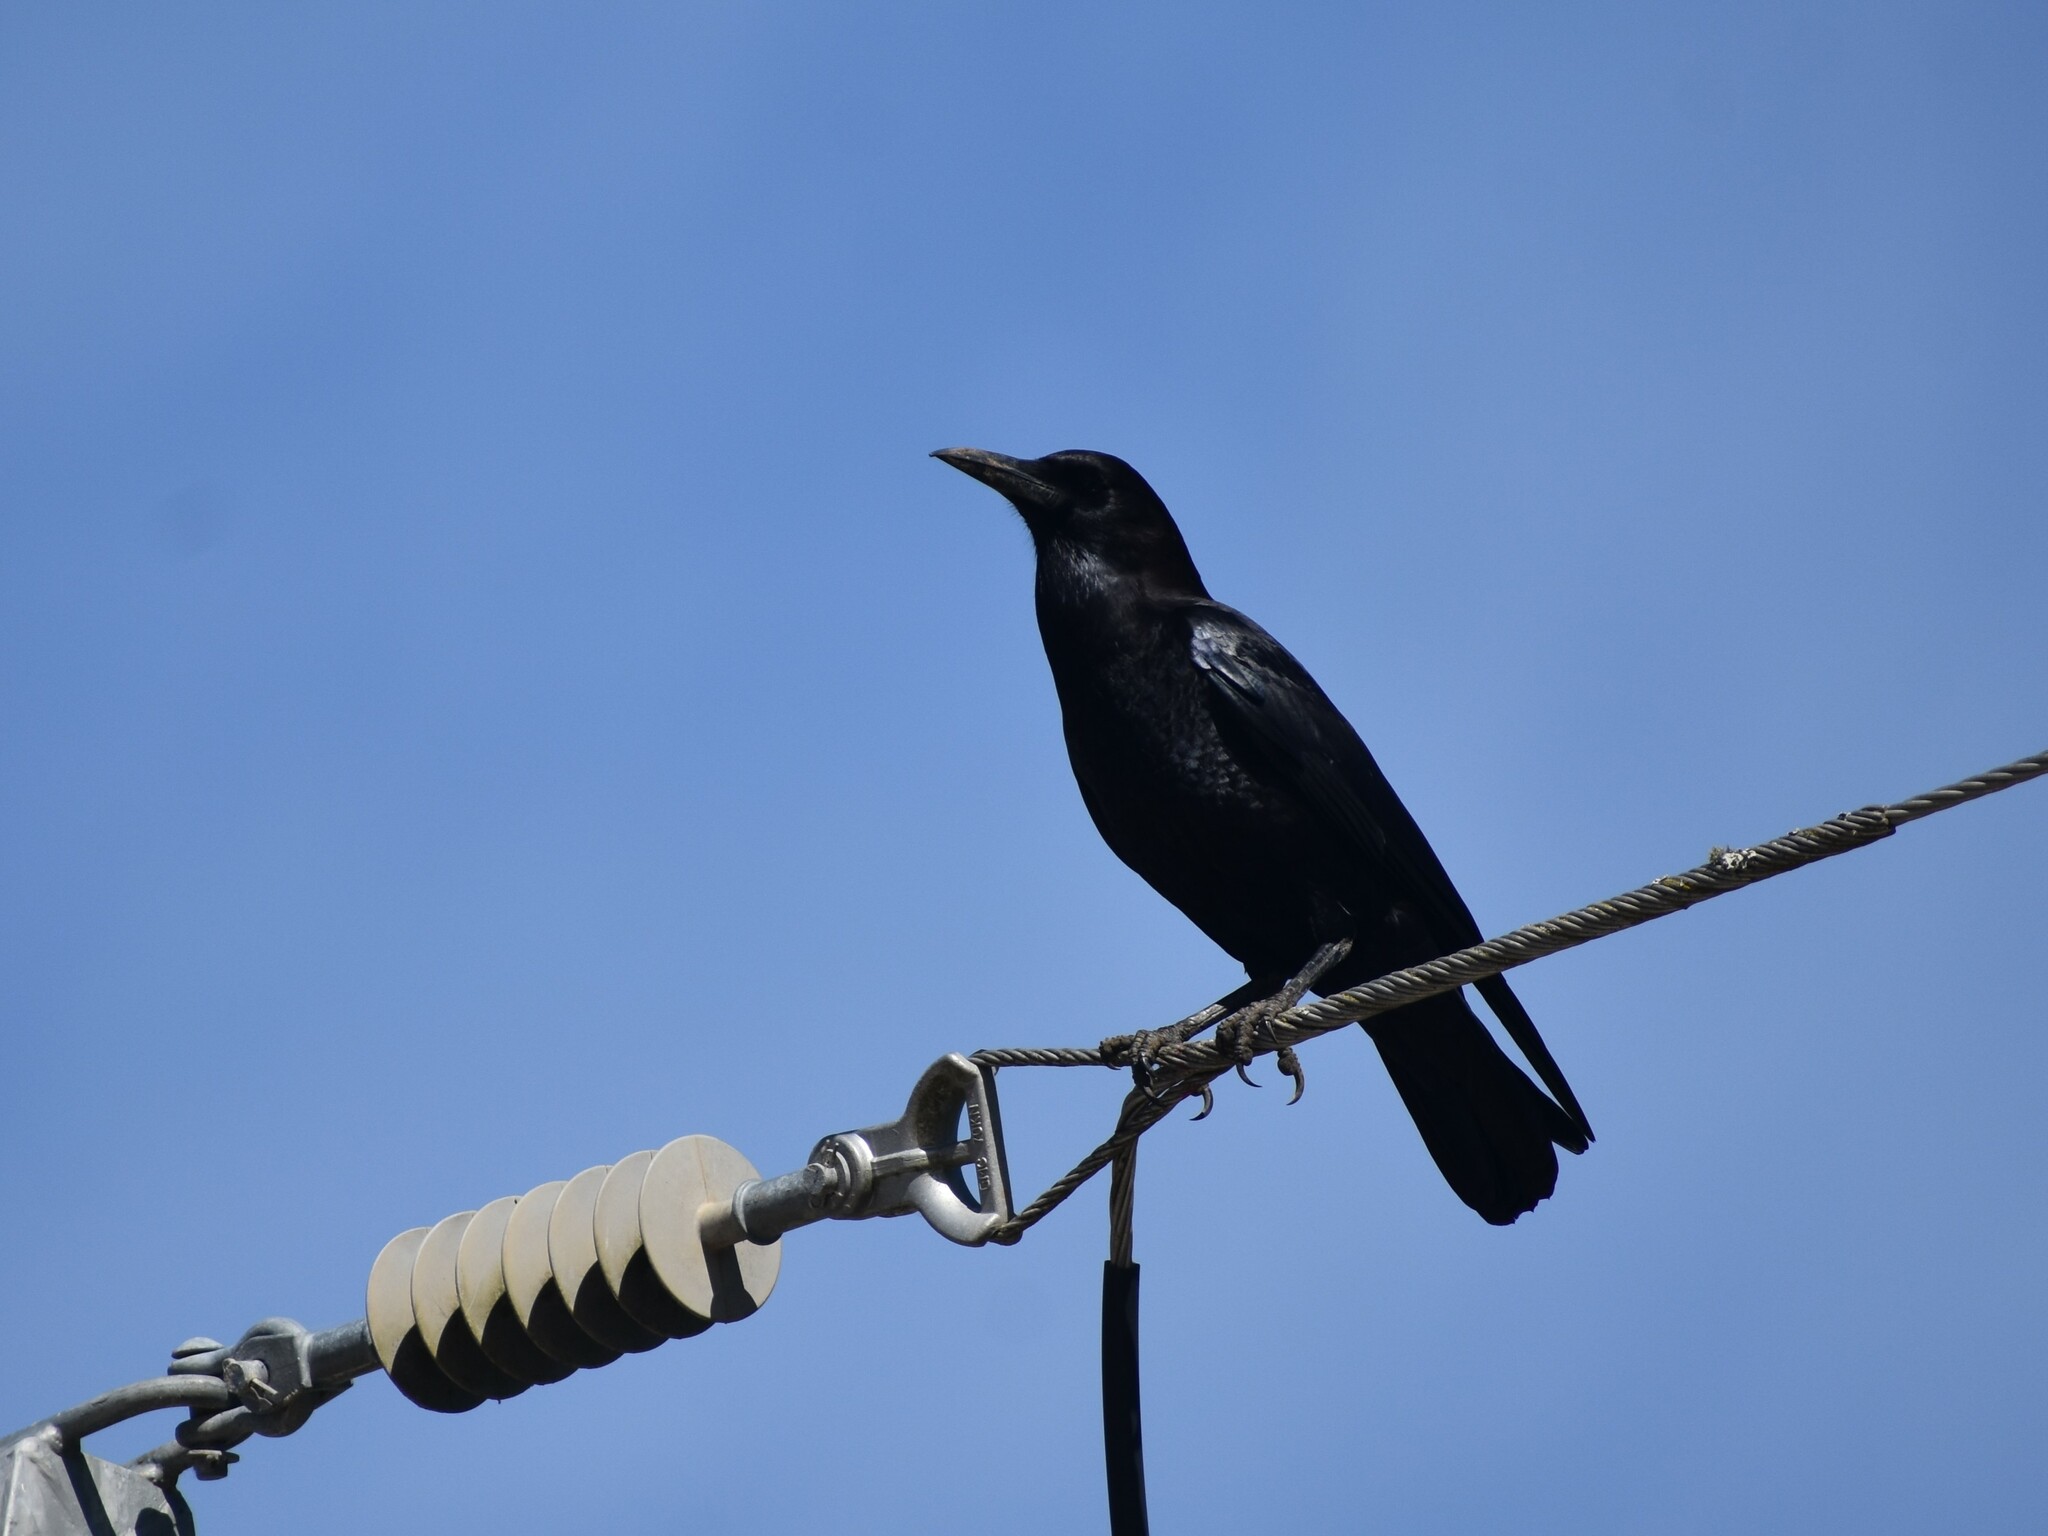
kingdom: Animalia
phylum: Chordata
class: Aves
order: Passeriformes
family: Corvidae
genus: Corvus
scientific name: Corvus capensis
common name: Cape crow
